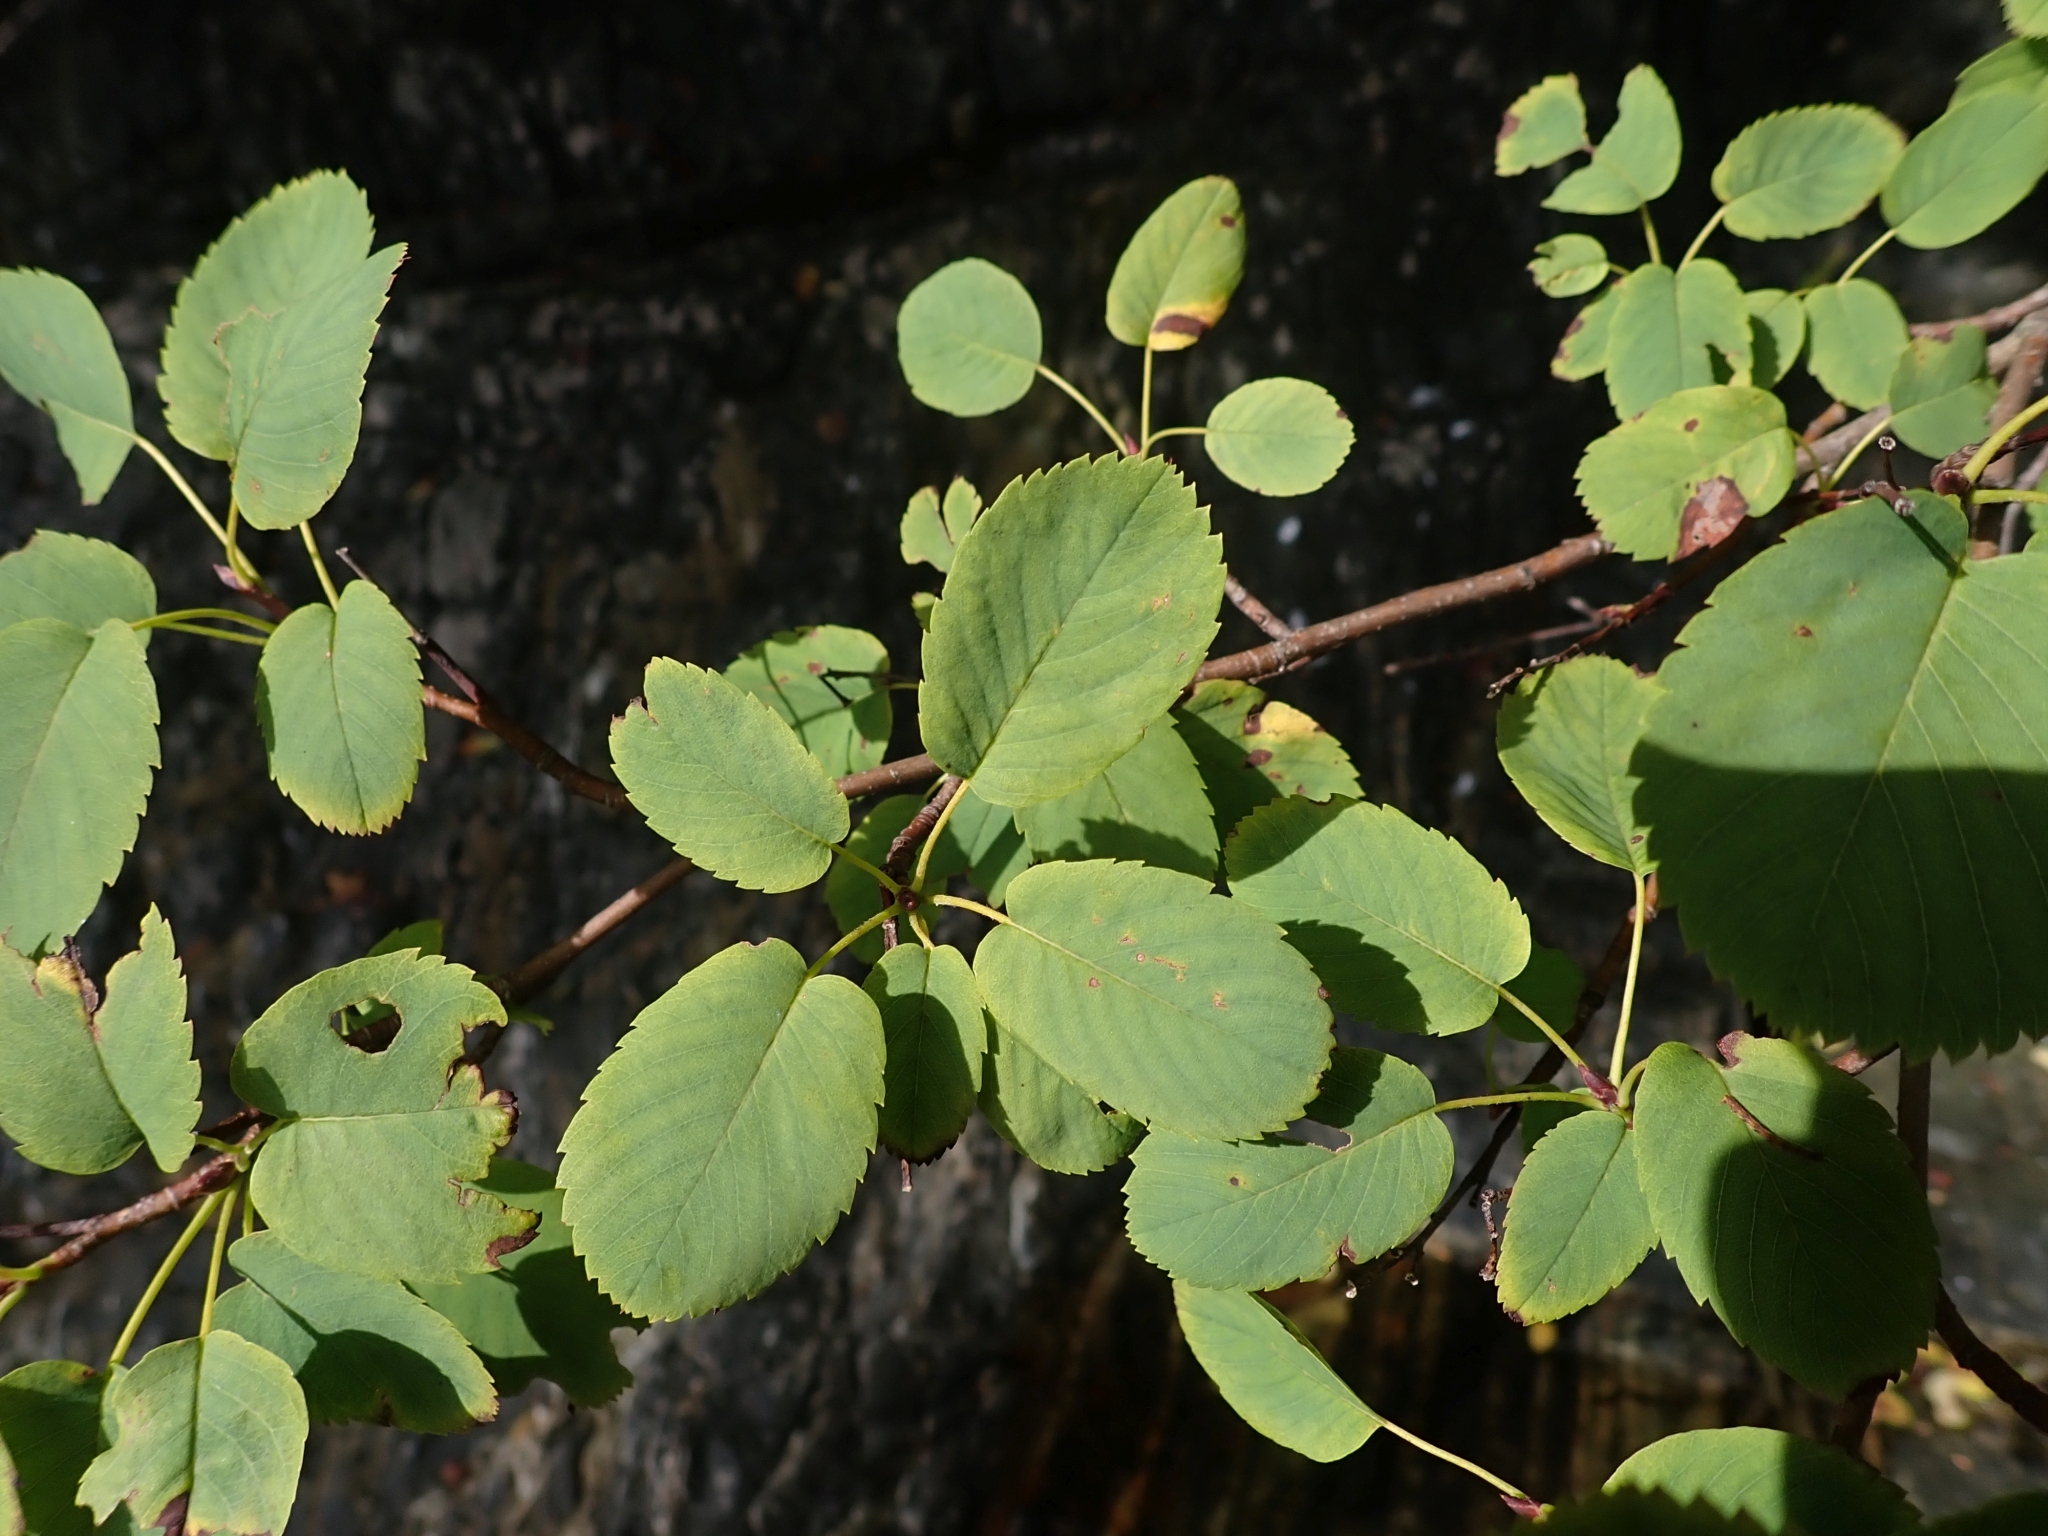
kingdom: Plantae
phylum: Tracheophyta
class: Magnoliopsida
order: Rosales
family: Rosaceae
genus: Amelanchier
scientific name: Amelanchier alnifolia
